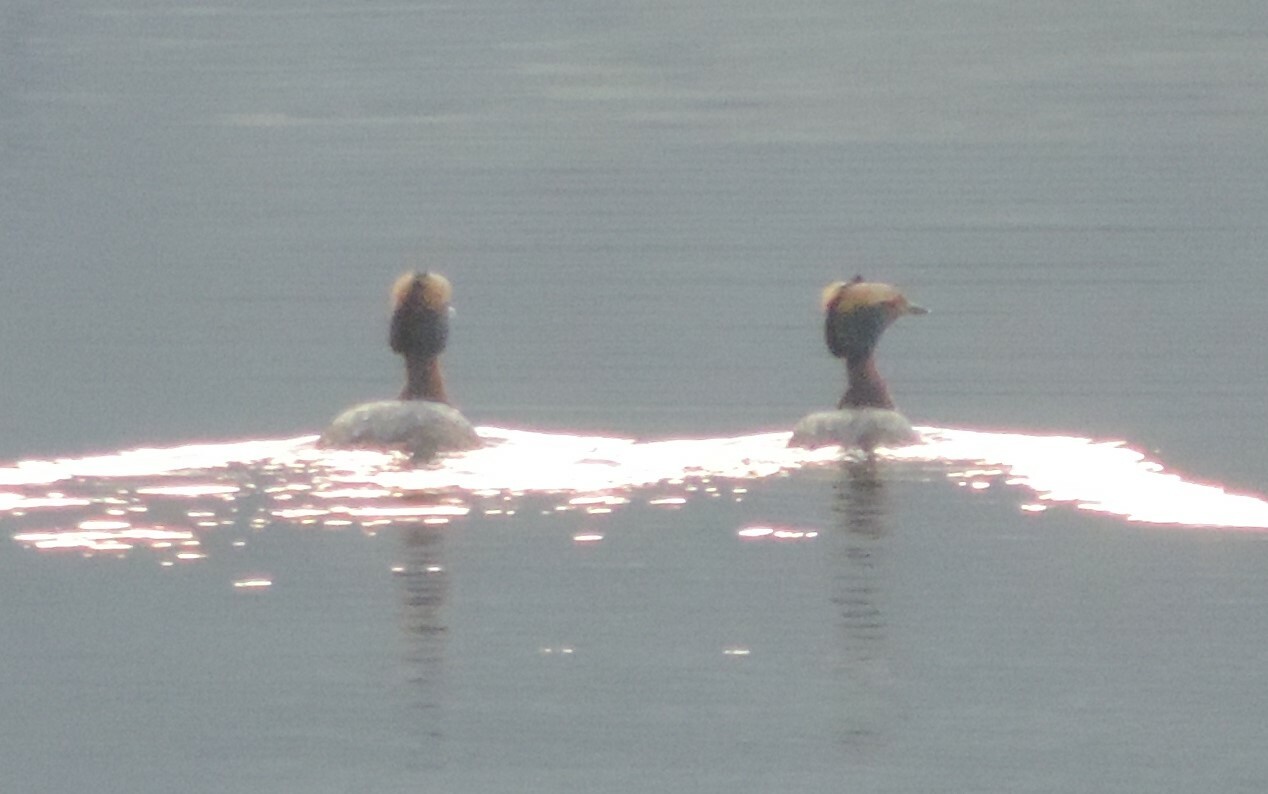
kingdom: Animalia
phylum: Chordata
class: Aves
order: Podicipediformes
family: Podicipedidae
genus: Podiceps
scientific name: Podiceps auritus
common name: Horned grebe
